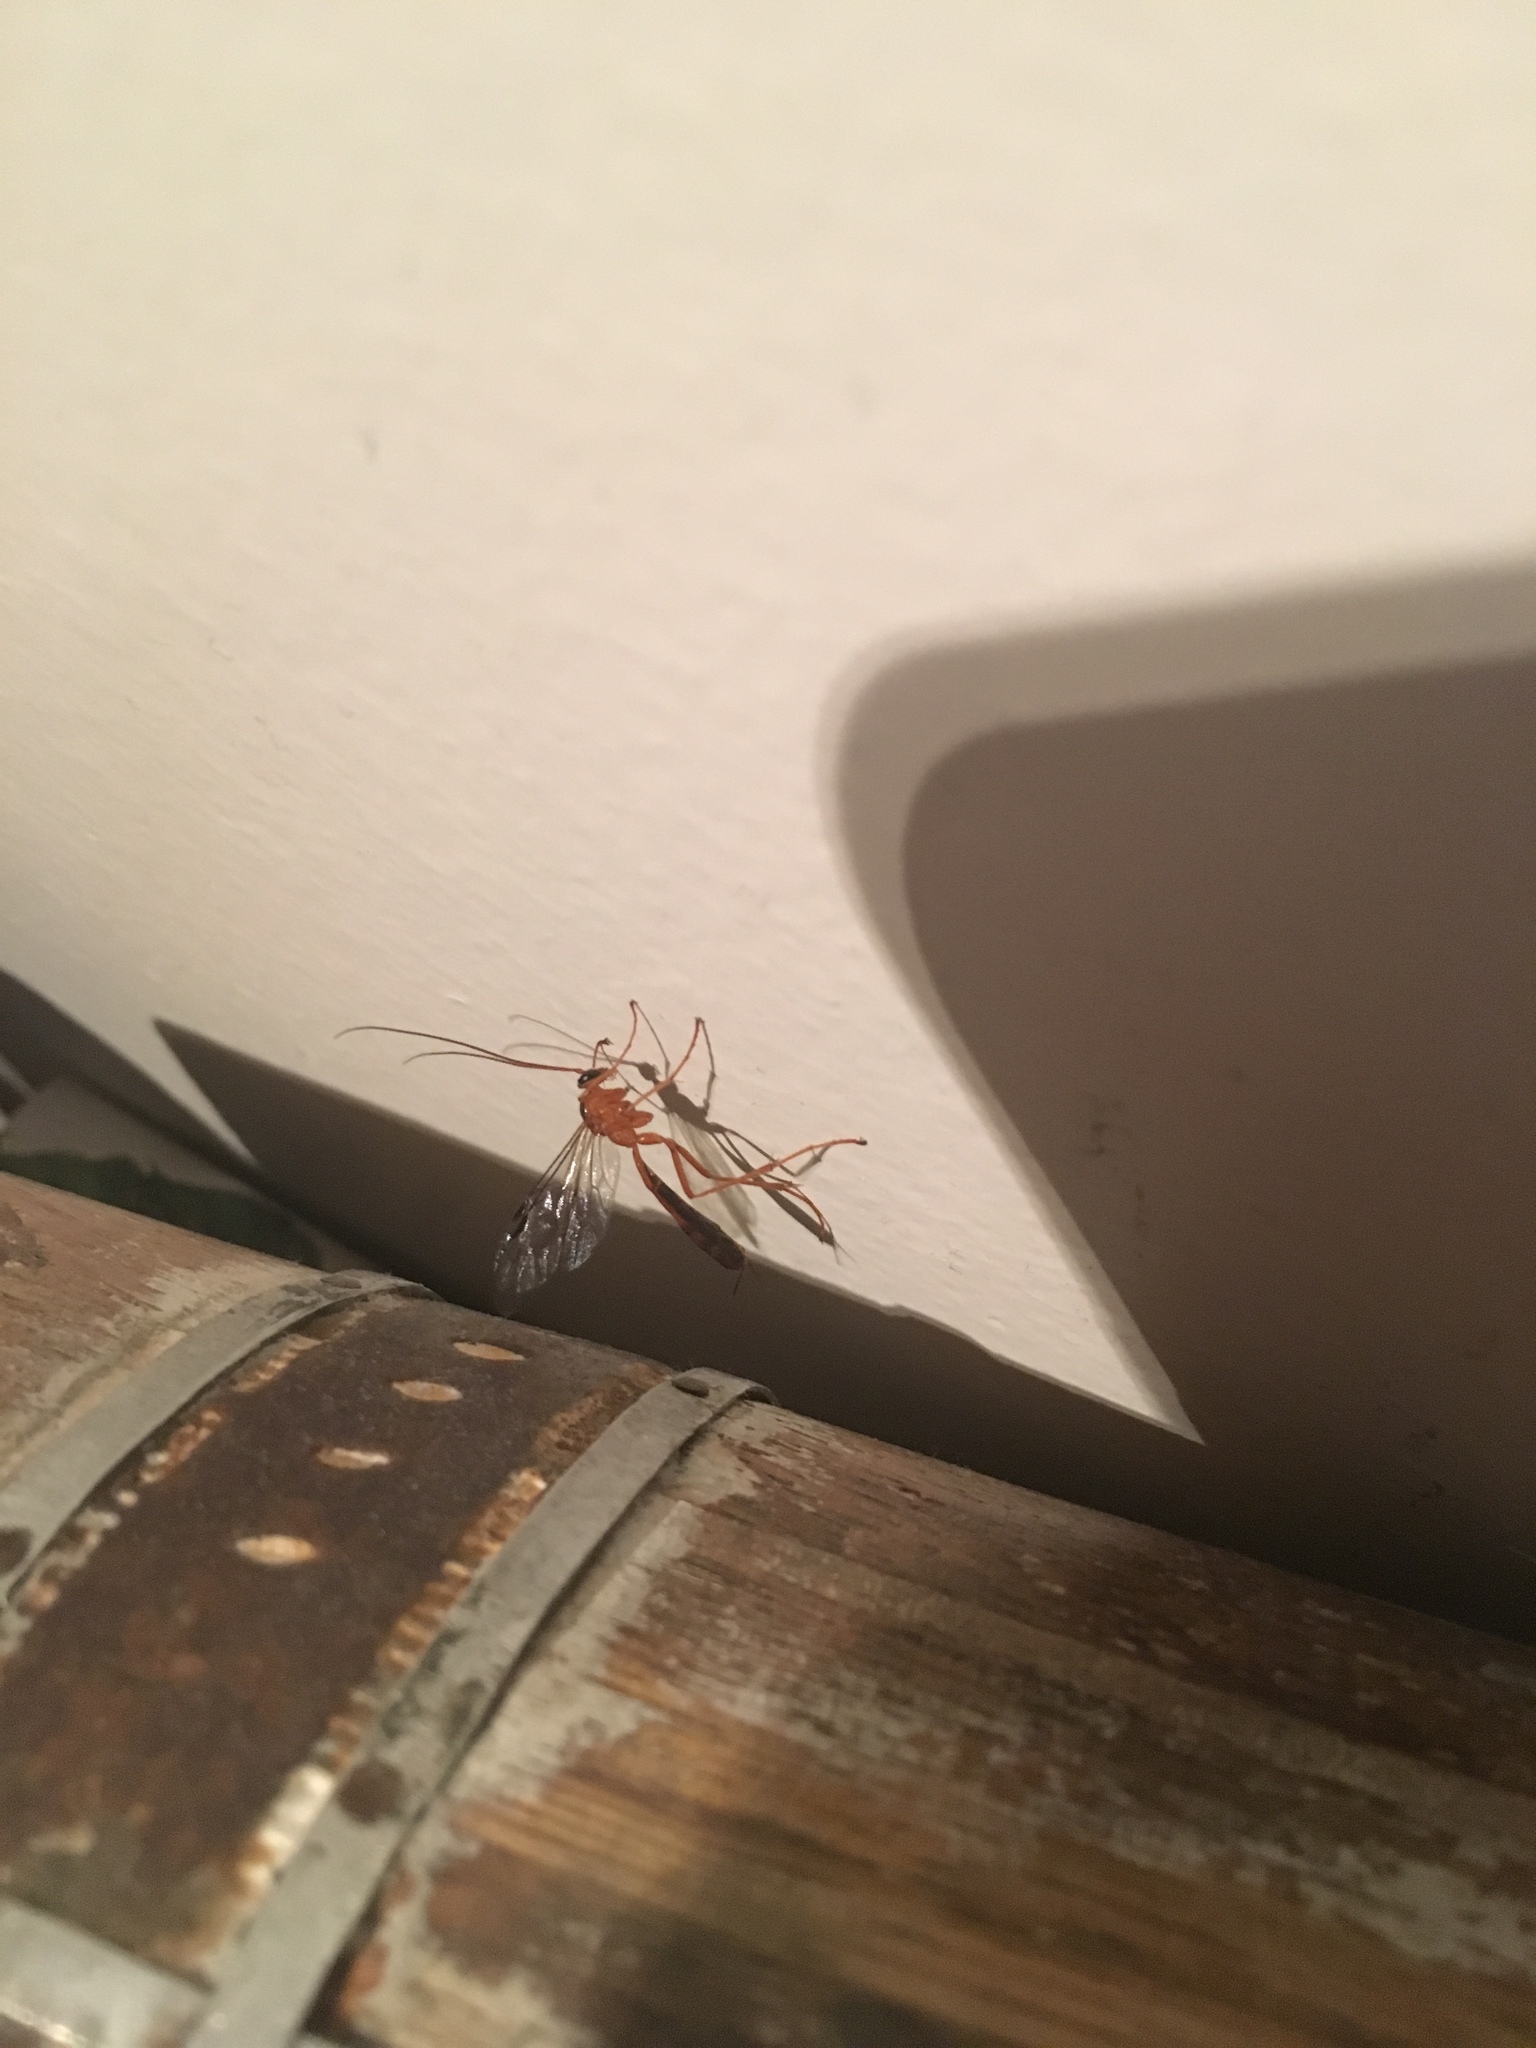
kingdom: Animalia
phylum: Arthropoda
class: Insecta
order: Hymenoptera
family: Ichneumonidae
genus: Netelia
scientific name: Netelia ephippiata
